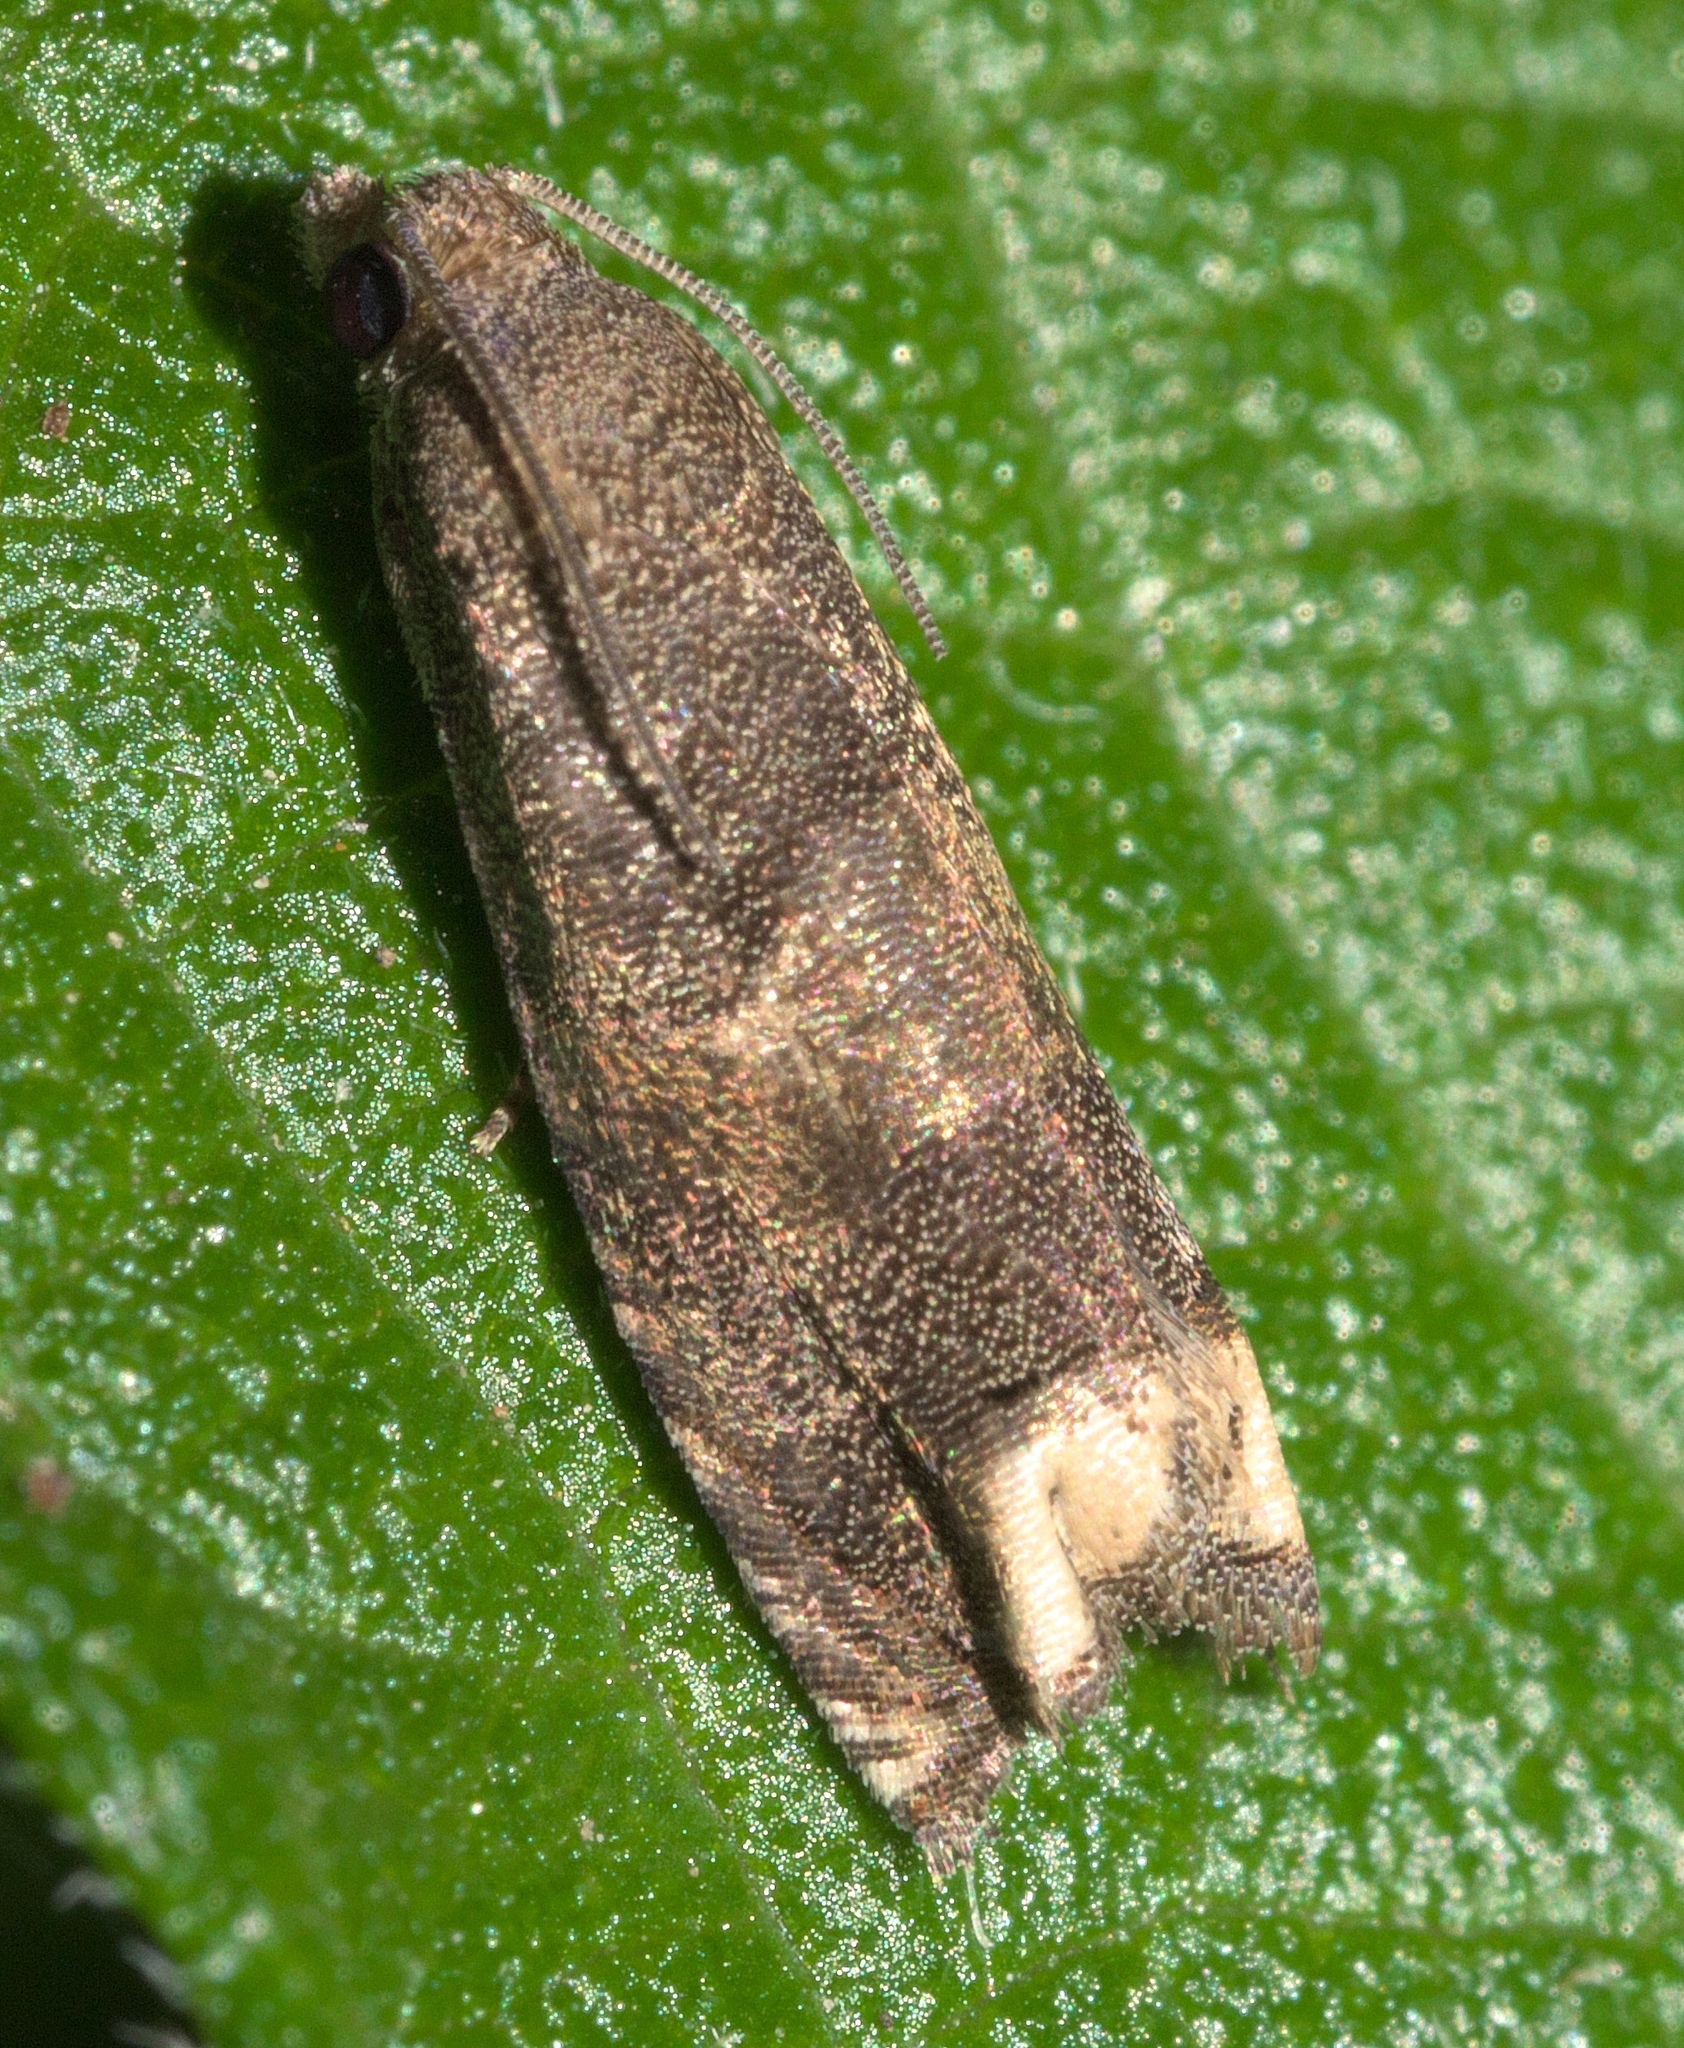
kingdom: Animalia
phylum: Arthropoda
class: Insecta
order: Lepidoptera
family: Tortricidae
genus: Epiblema
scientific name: Epiblema strenuana
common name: Ragweed borer moth
